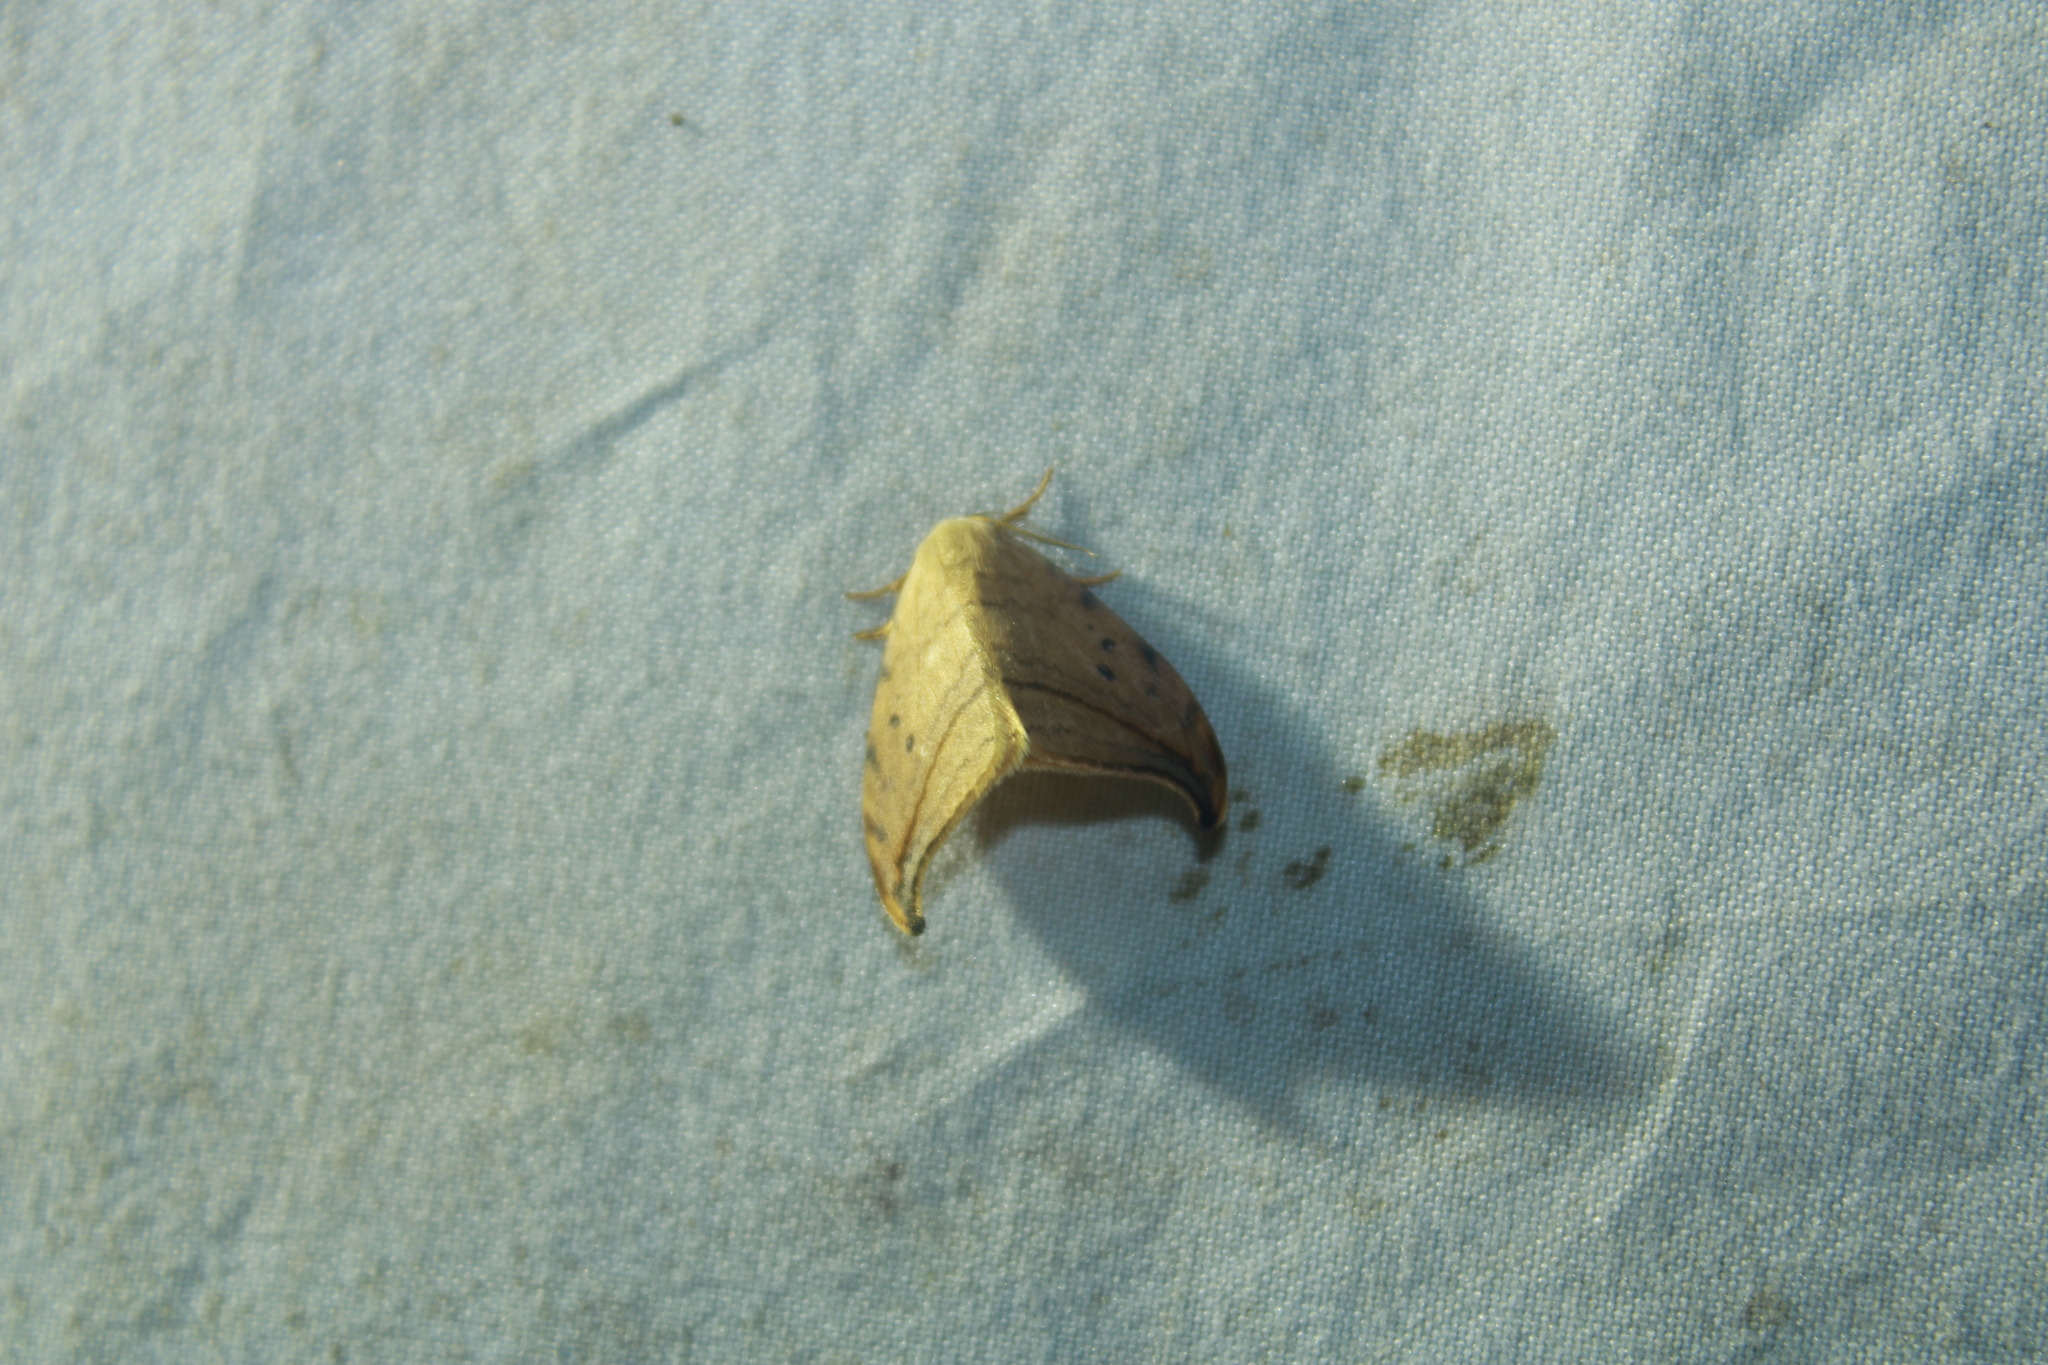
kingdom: Animalia
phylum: Arthropoda
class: Insecta
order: Lepidoptera
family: Drepanidae
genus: Drepana
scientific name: Drepana arcuata
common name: Arched hooktip moth
